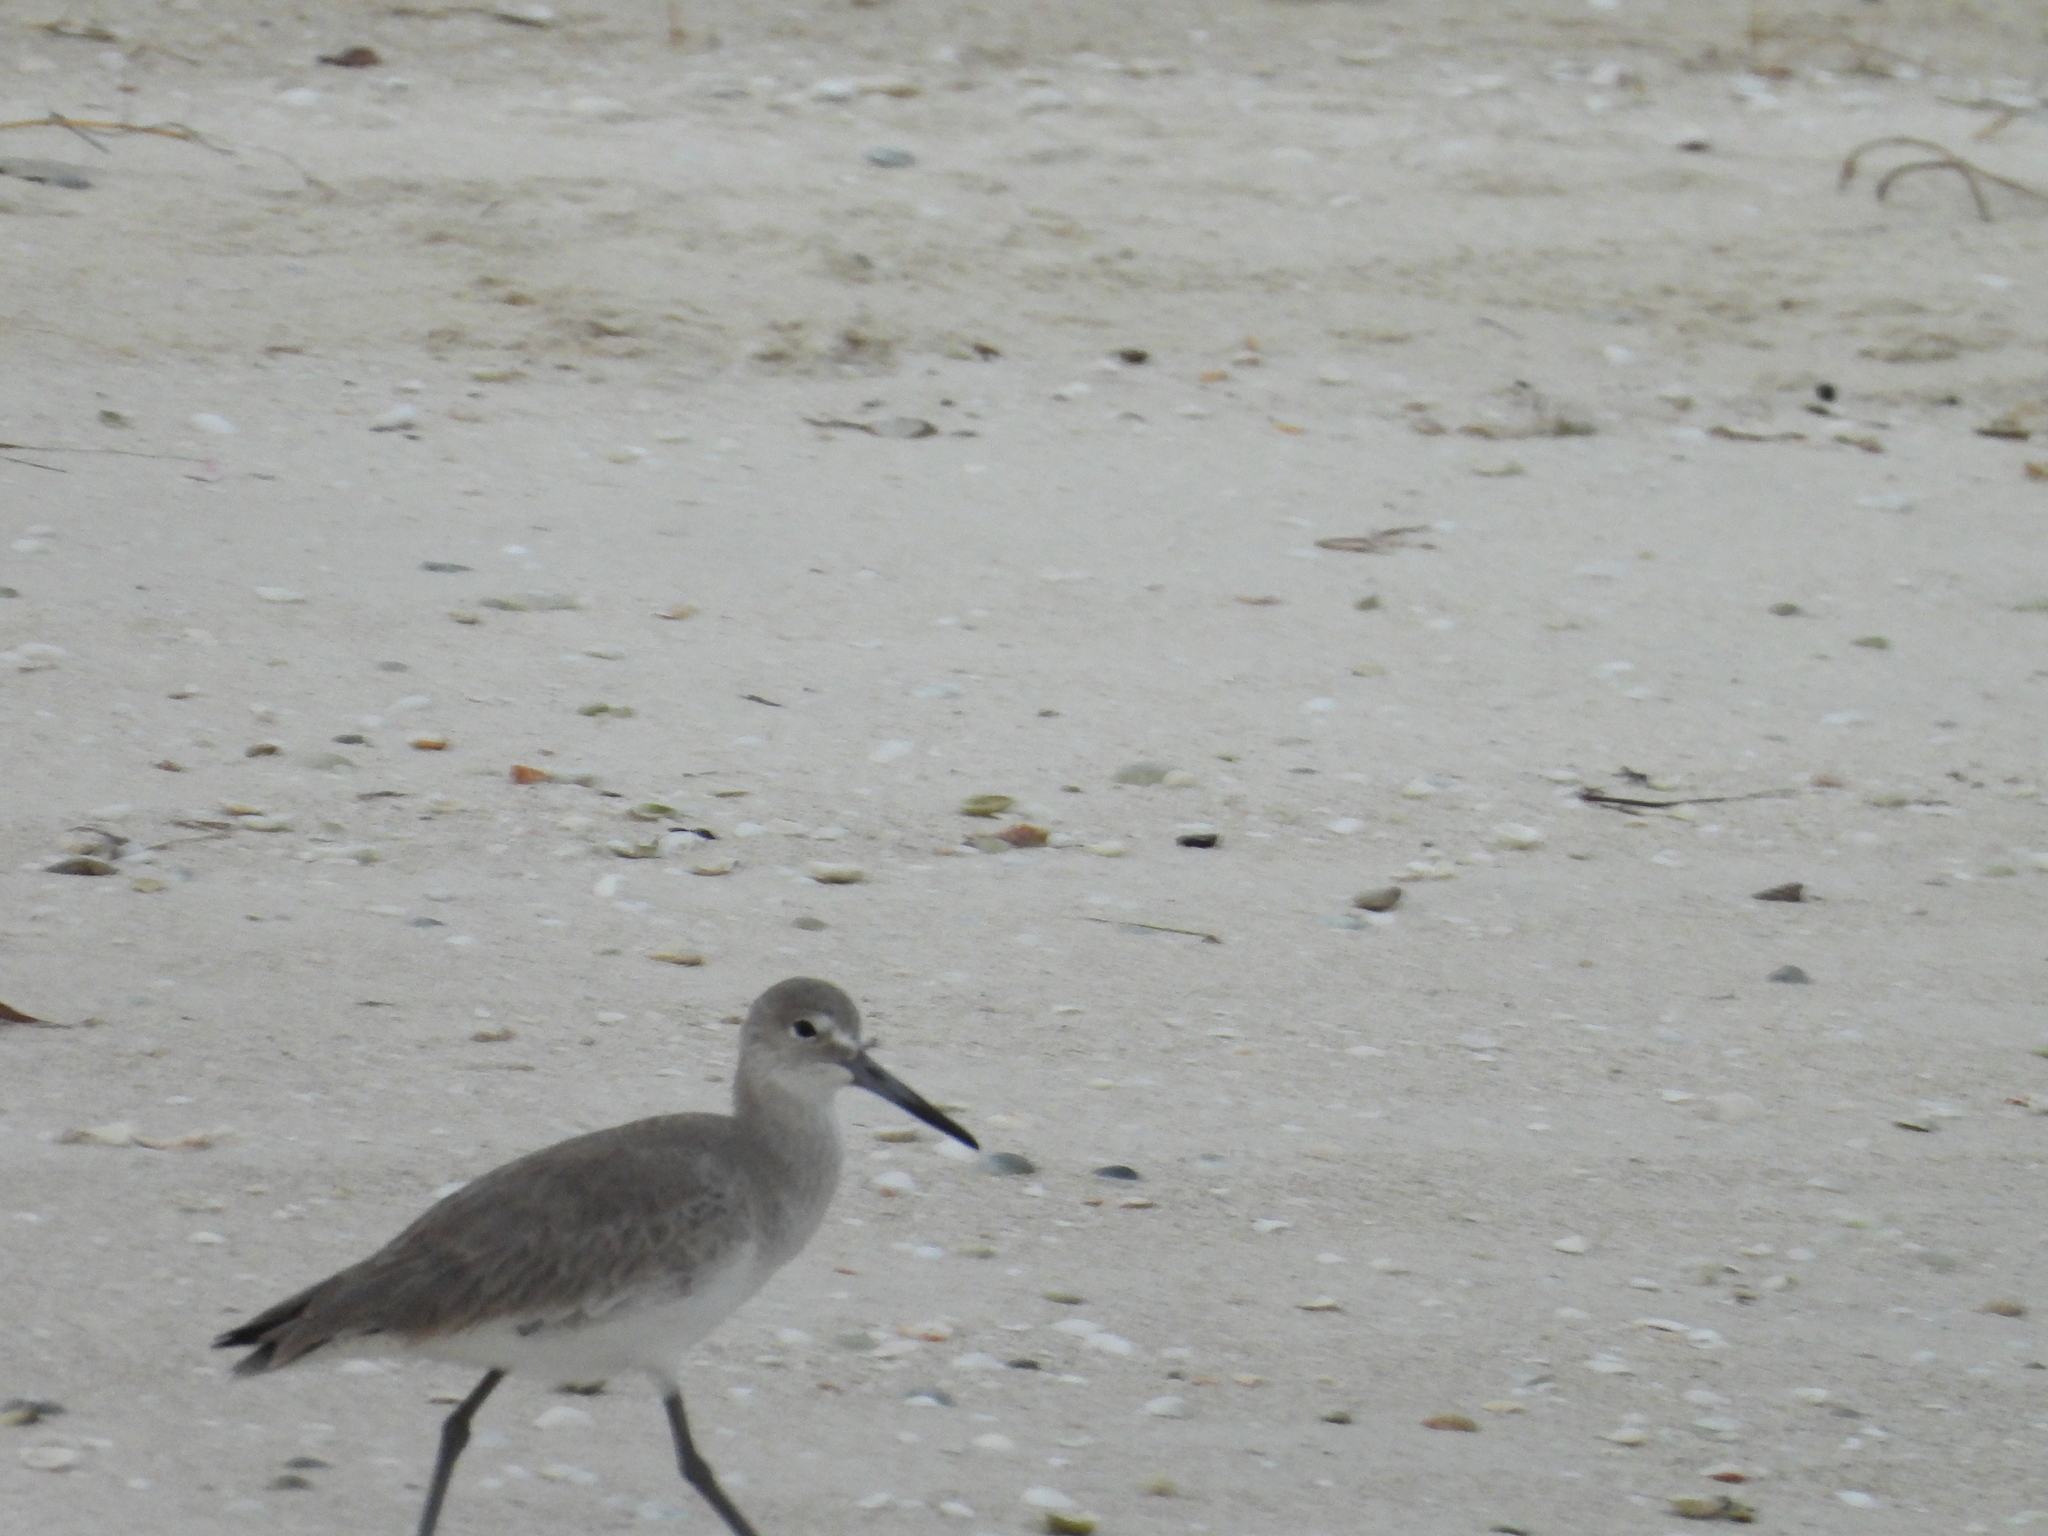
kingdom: Animalia
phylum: Chordata
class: Aves
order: Charadriiformes
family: Scolopacidae
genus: Tringa
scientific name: Tringa semipalmata
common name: Willet
